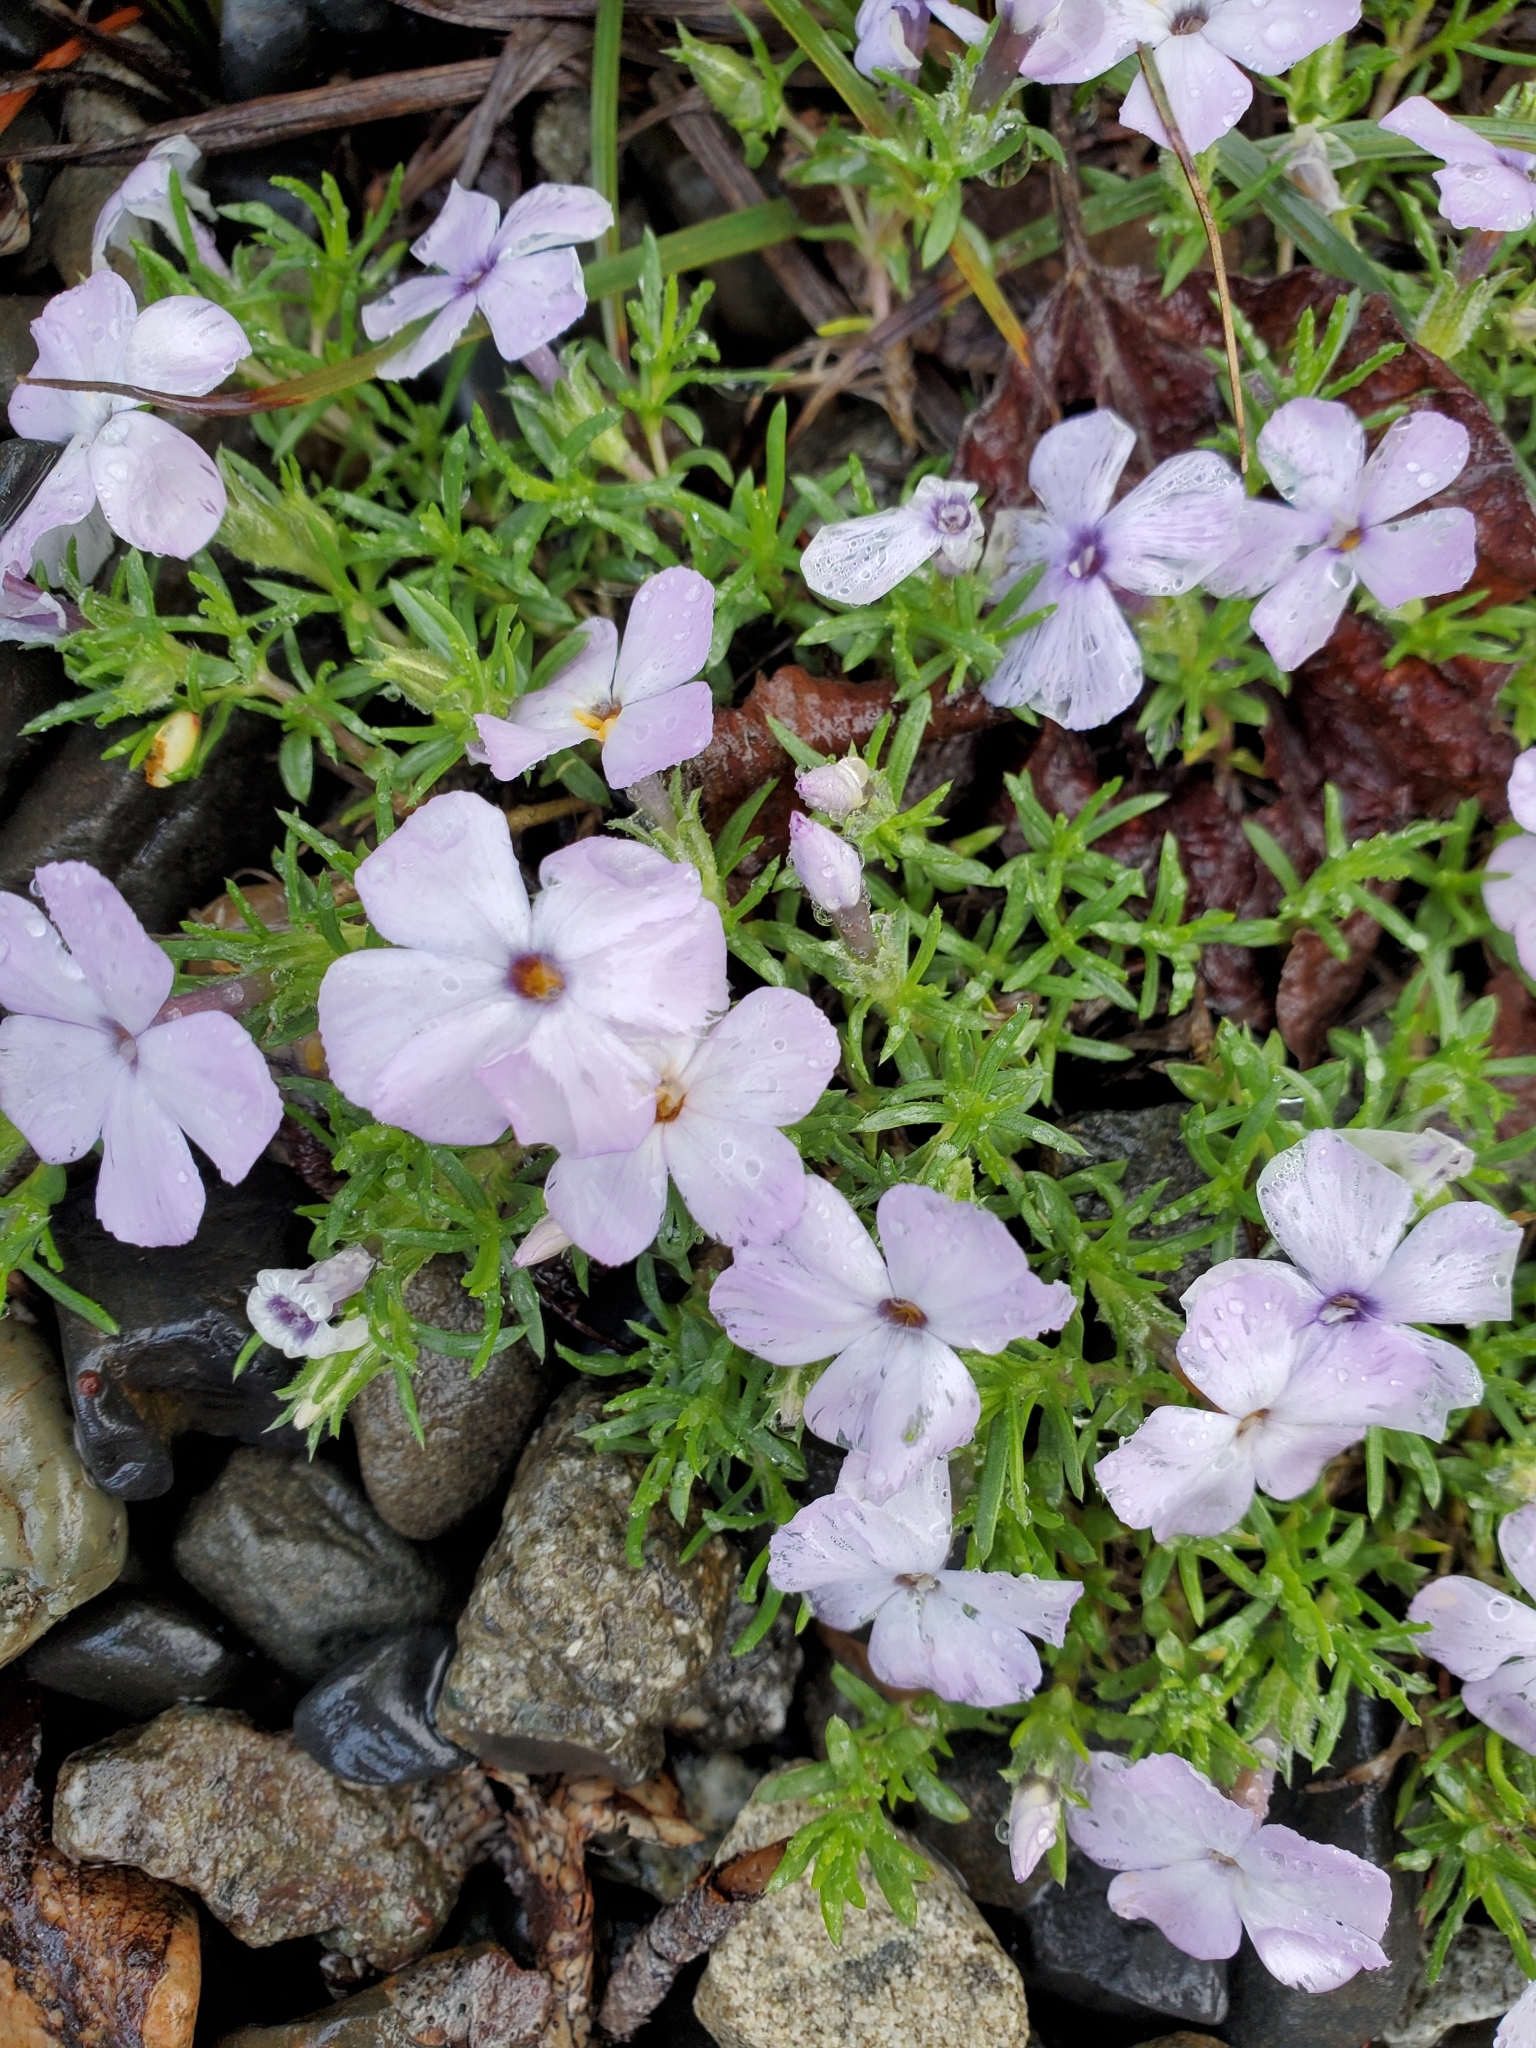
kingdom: Plantae
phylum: Tracheophyta
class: Magnoliopsida
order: Ericales
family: Polemoniaceae
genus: Phlox
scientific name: Phlox diffusa
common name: Mat phlox
